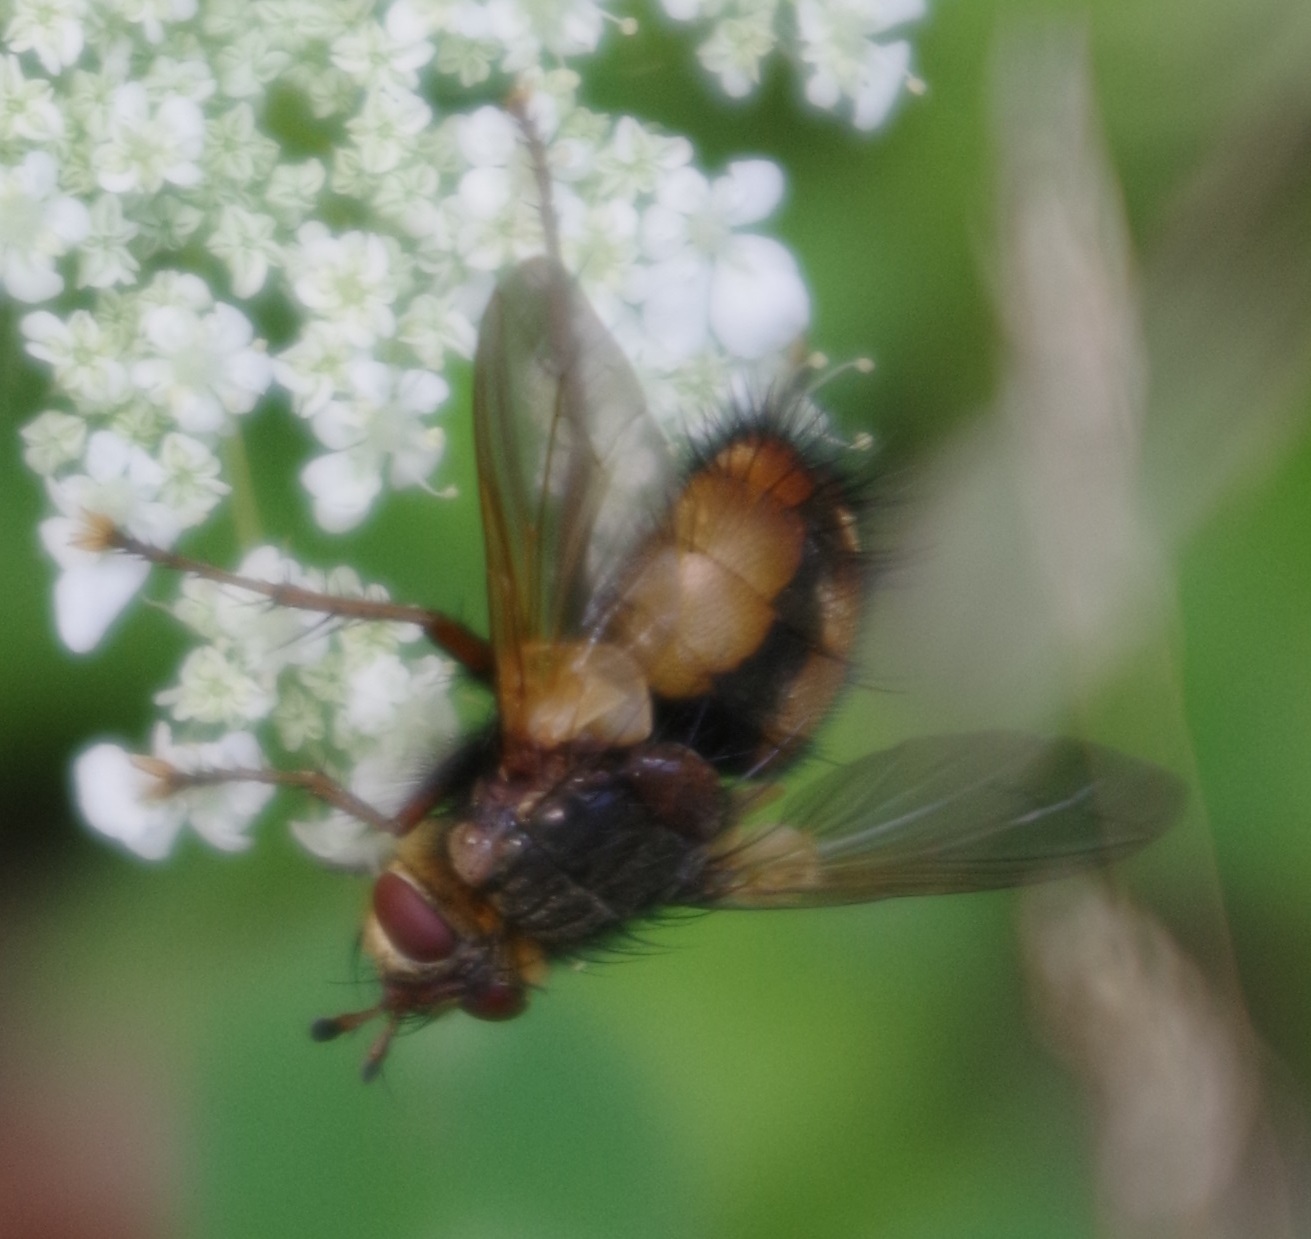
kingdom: Animalia
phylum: Arthropoda
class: Insecta
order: Diptera
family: Tachinidae
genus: Tachina
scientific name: Tachina fera
